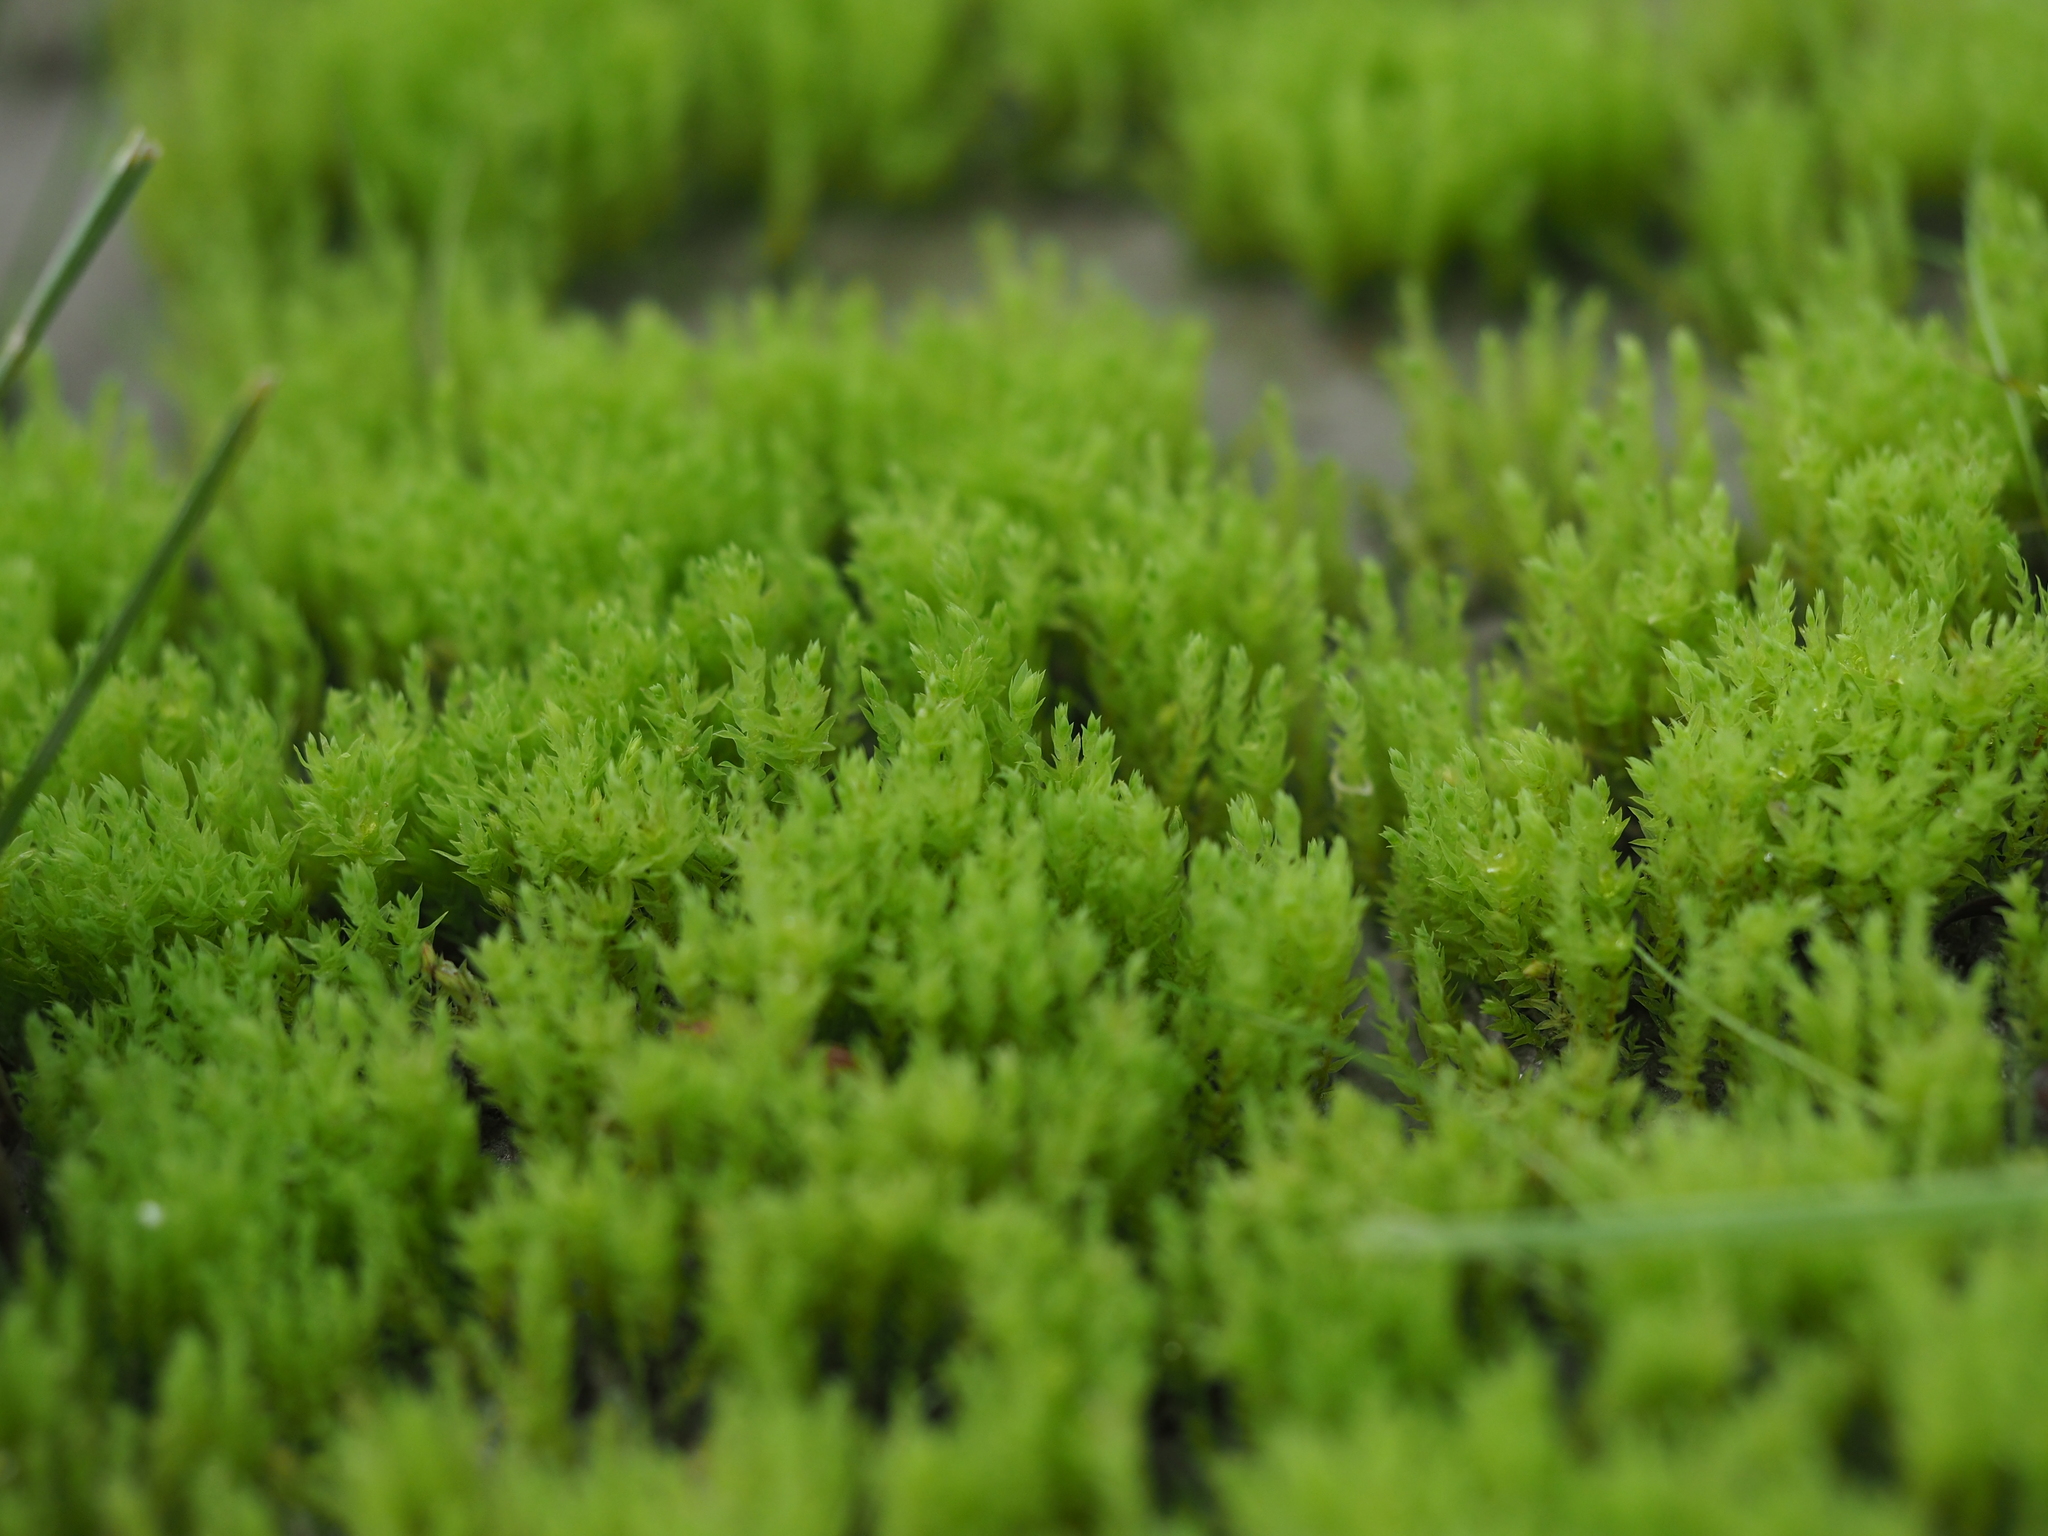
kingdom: Plantae
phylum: Bryophyta
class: Bryopsida
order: Bryales
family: Mniaceae
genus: Pohlia
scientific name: Pohlia wahlenbergii
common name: Wahlenberg's nodding moss
